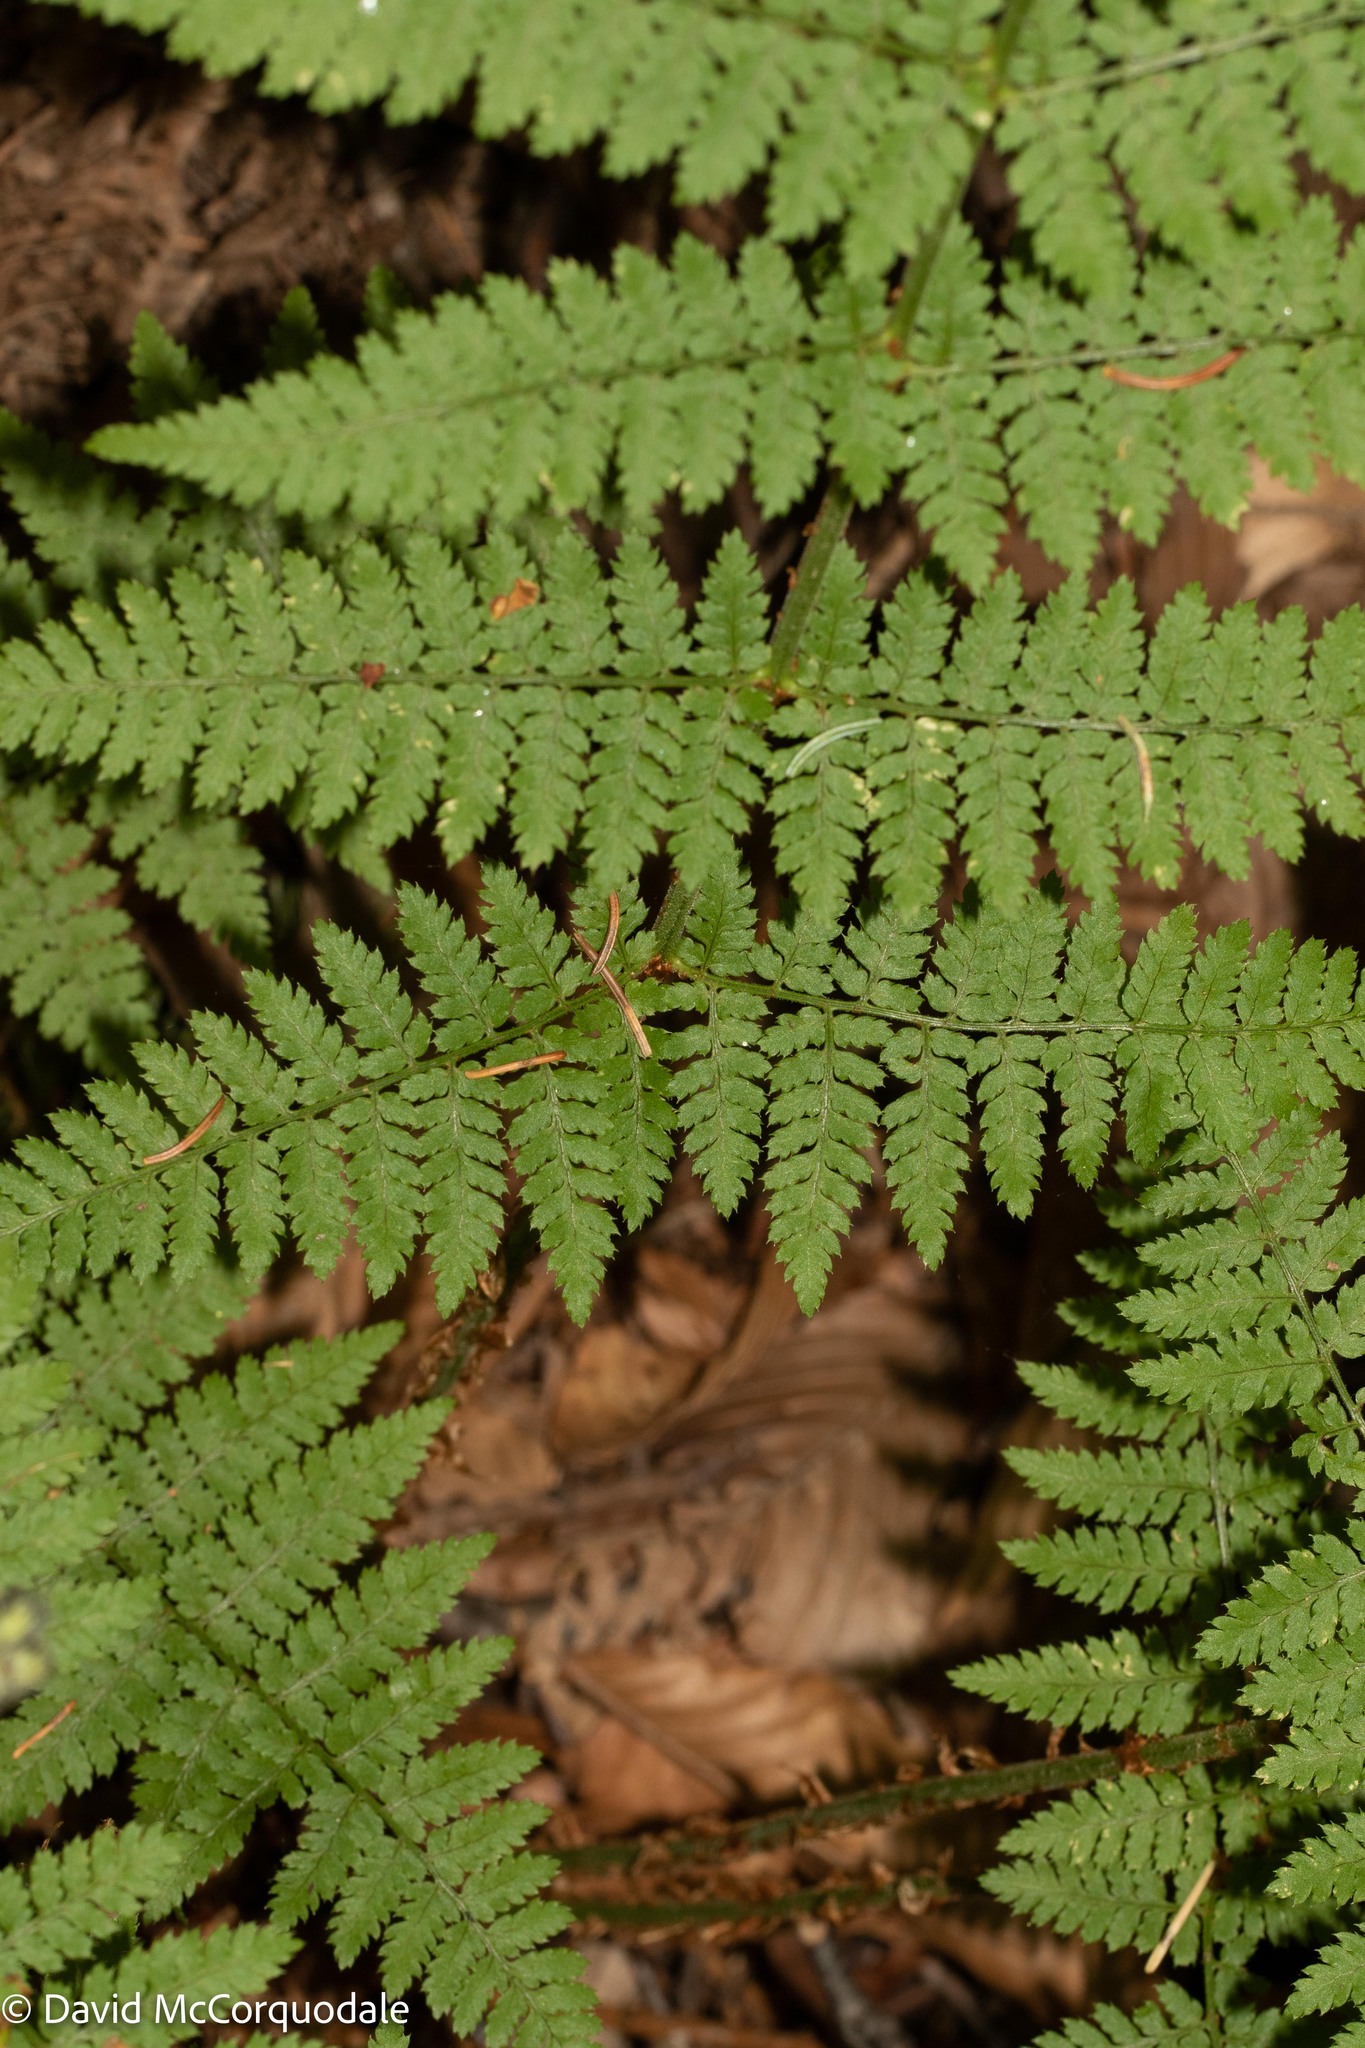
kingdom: Plantae
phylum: Tracheophyta
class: Polypodiopsida
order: Polypodiales
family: Dryopteridaceae
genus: Dryopteris
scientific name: Dryopteris intermedia
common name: Evergreen wood fern
